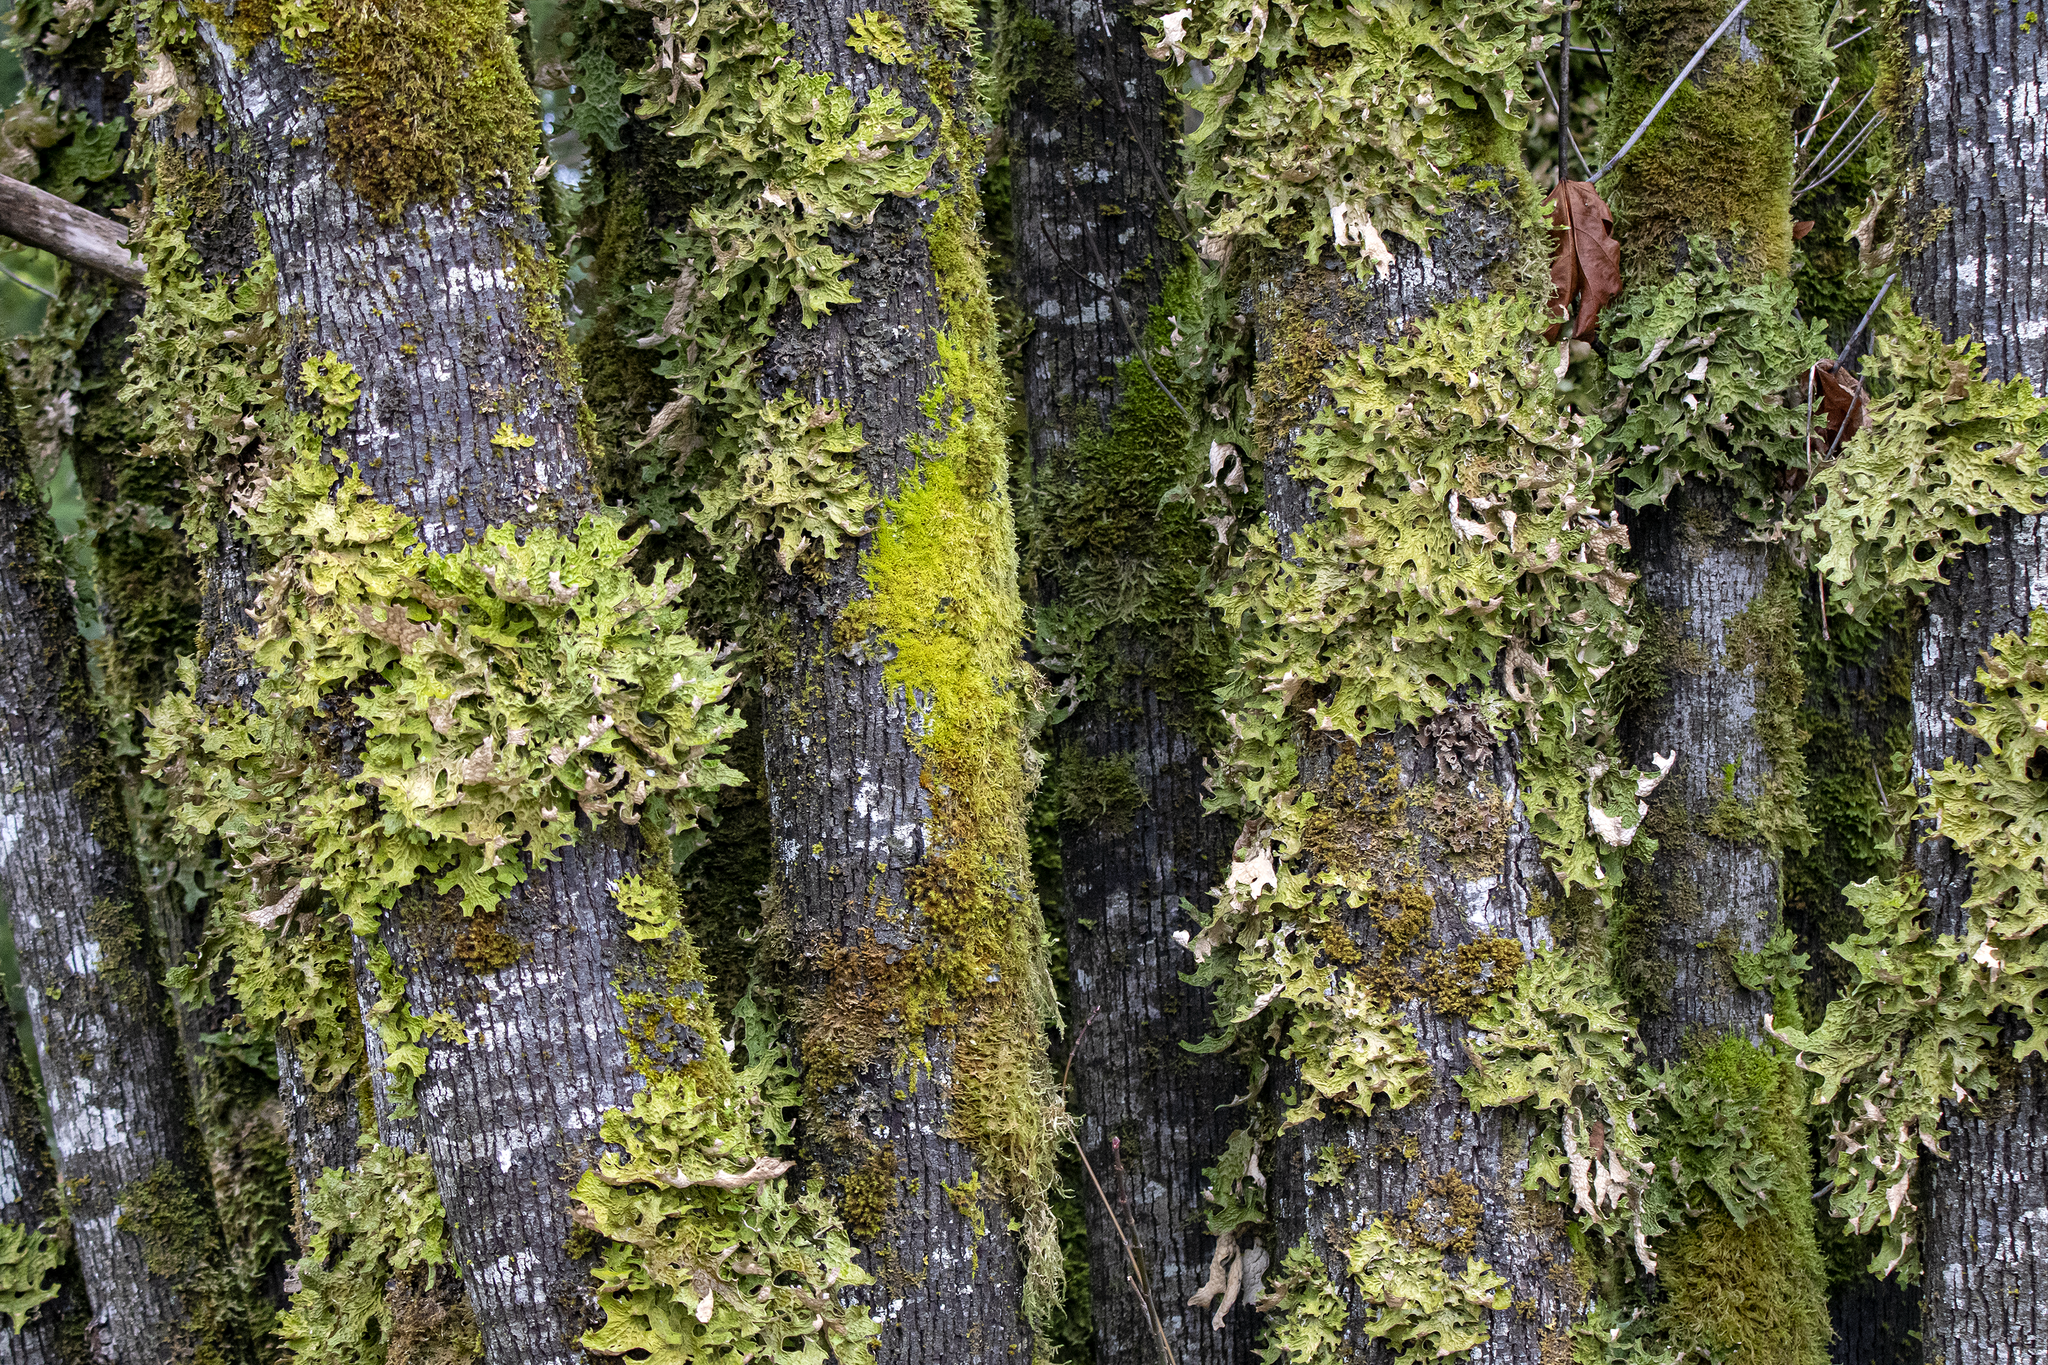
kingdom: Fungi
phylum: Ascomycota
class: Lecanoromycetes
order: Peltigerales
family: Lobariaceae
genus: Lobaria
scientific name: Lobaria pulmonaria
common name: Lungwort
